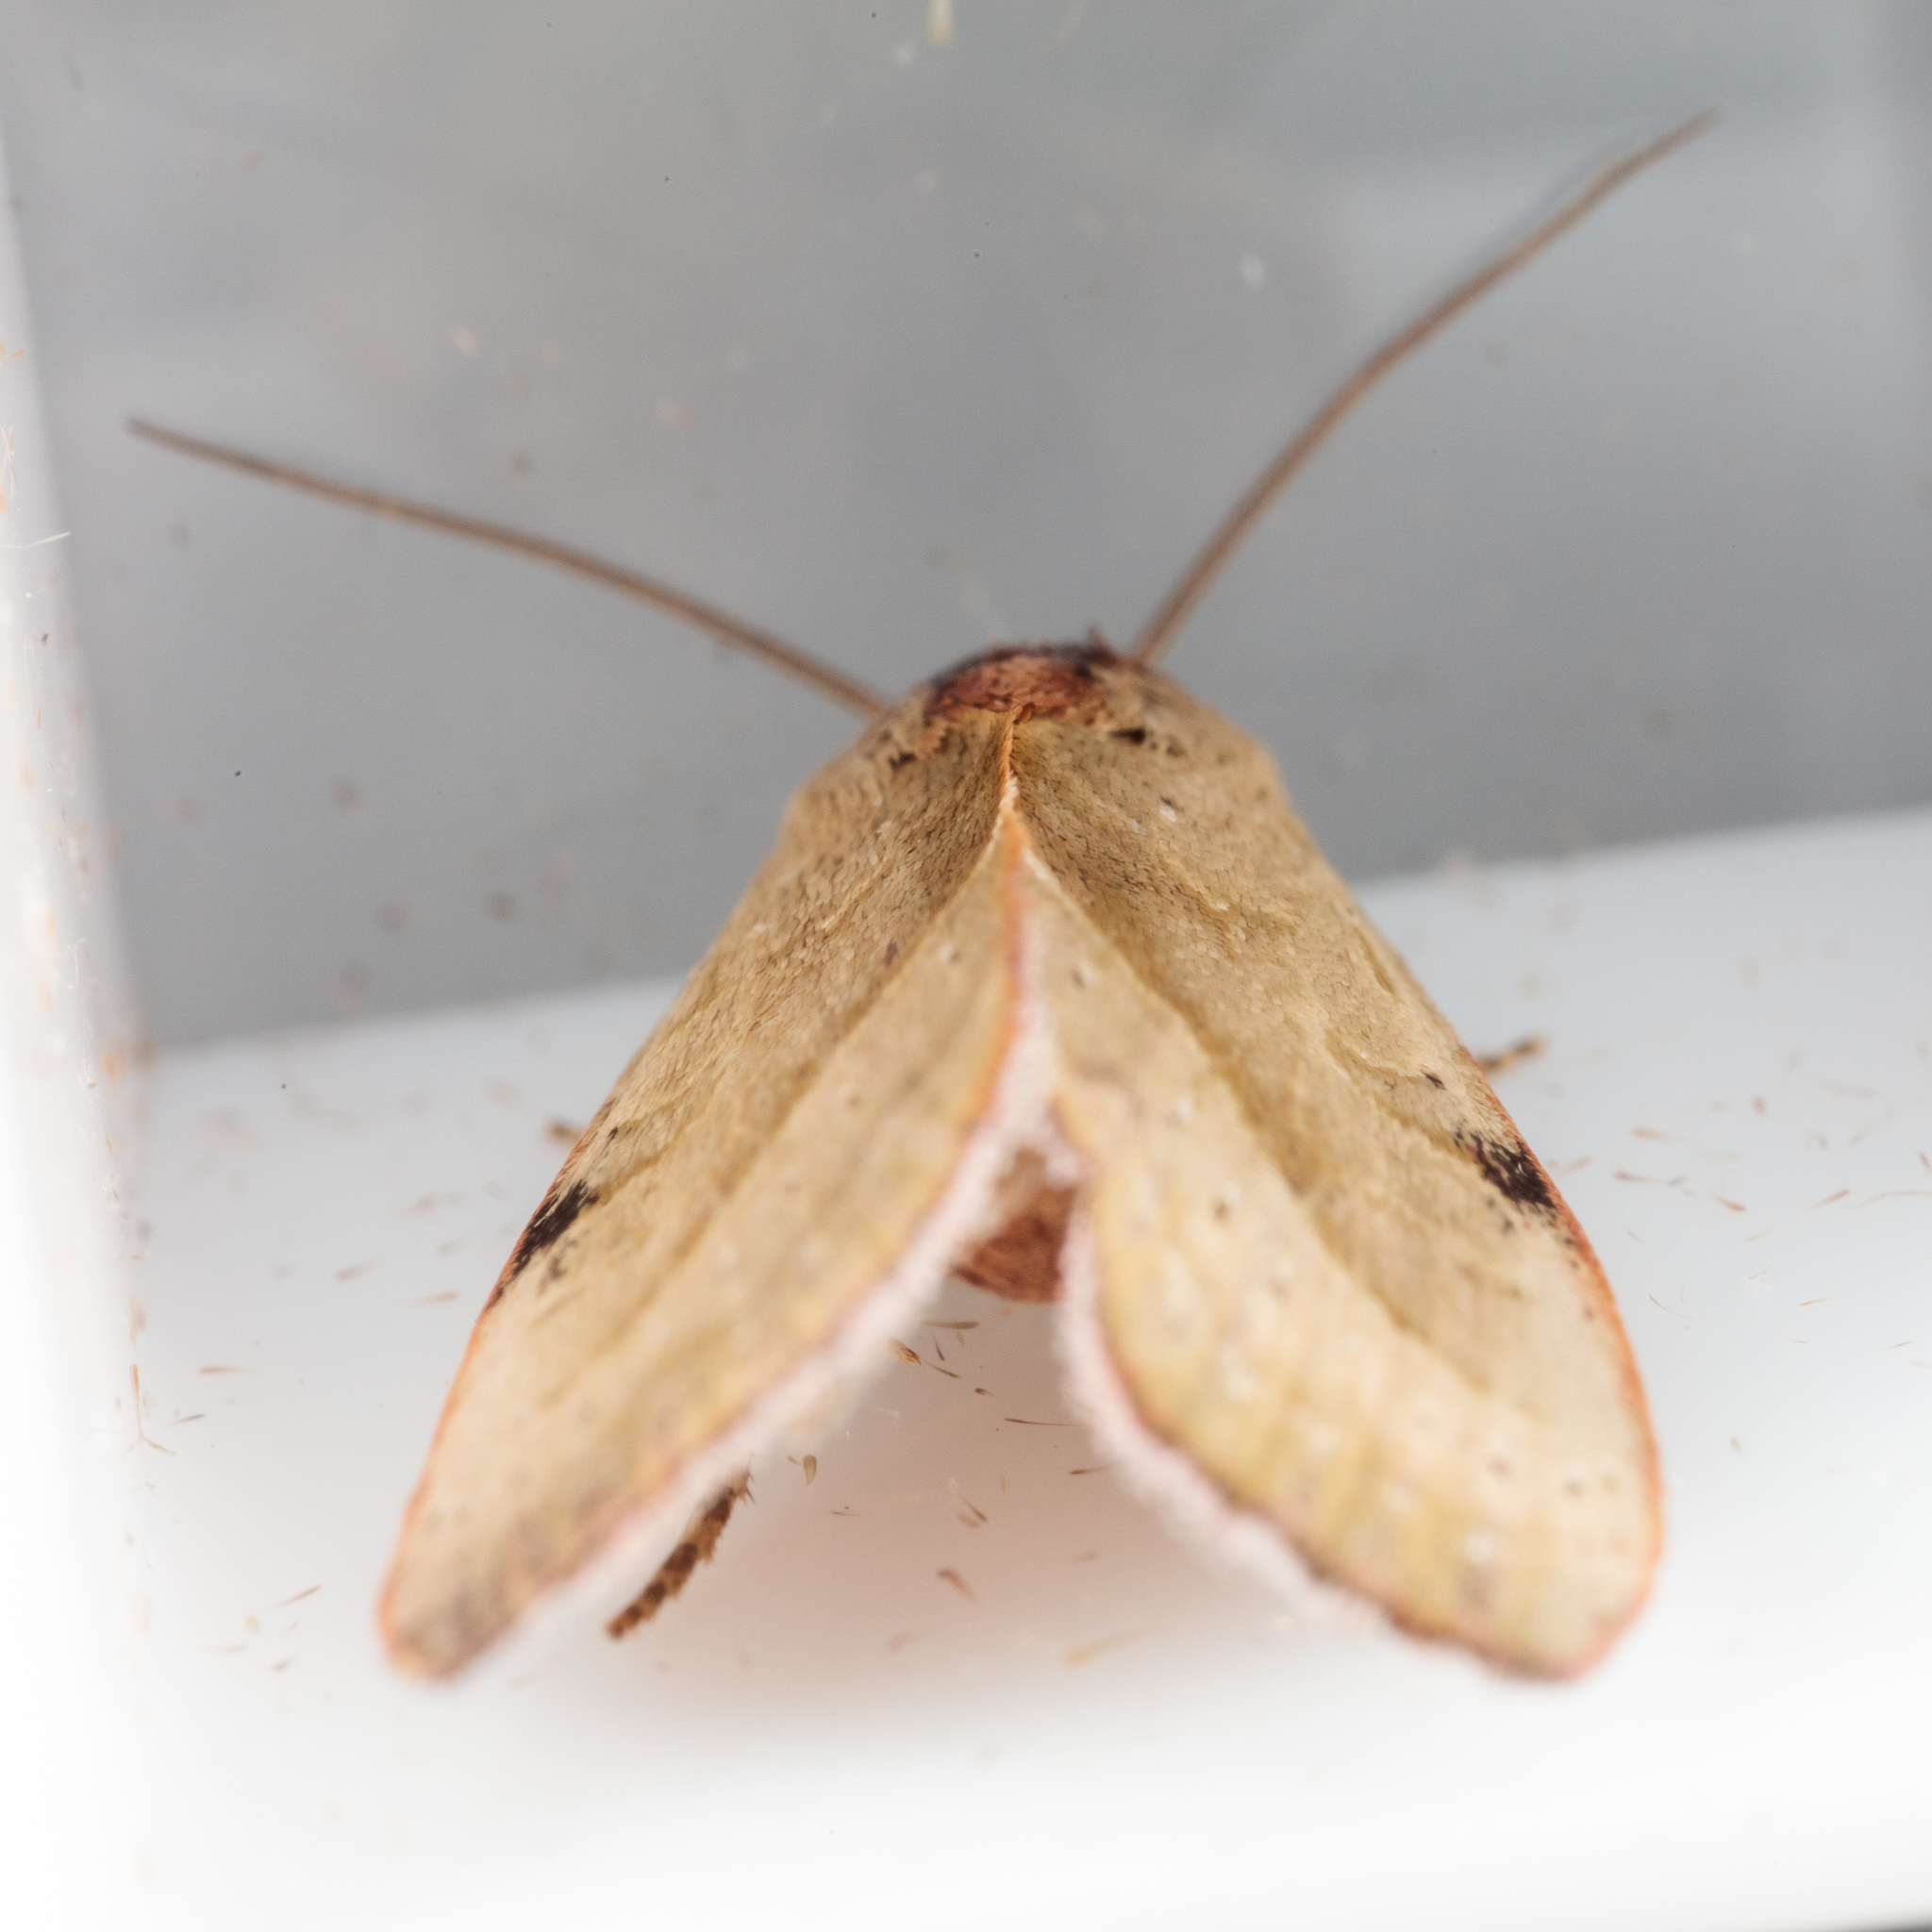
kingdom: Animalia
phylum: Arthropoda
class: Insecta
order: Lepidoptera
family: Noctuidae
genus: Galgula
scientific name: Galgula partita
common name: Wedgeling
